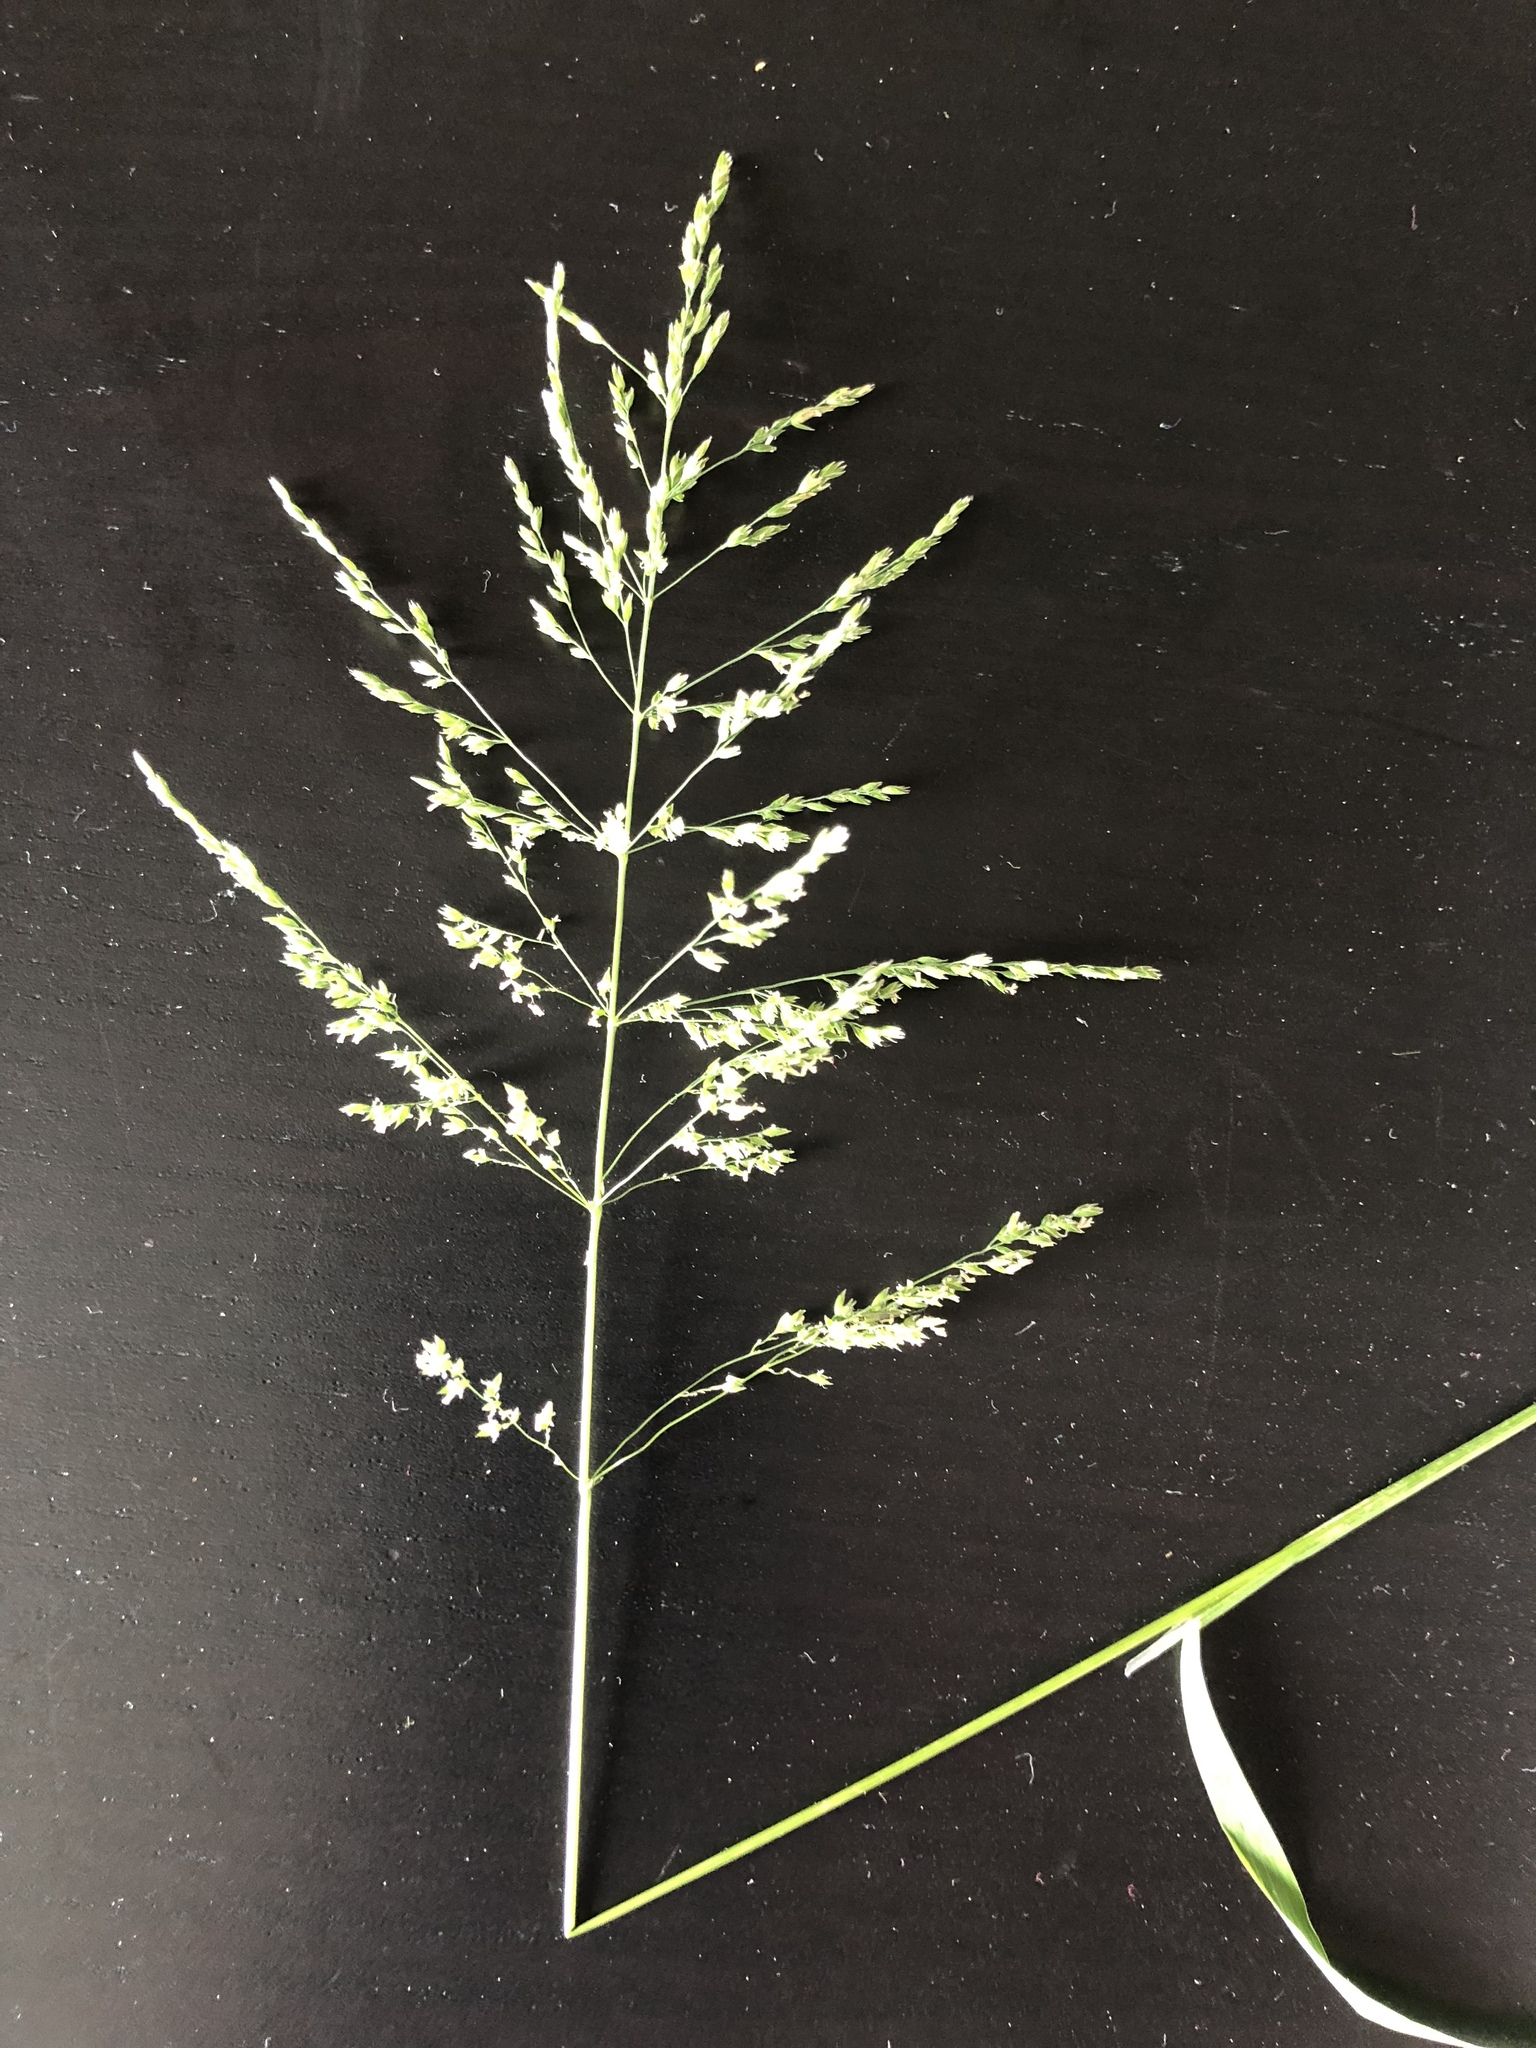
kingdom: Plantae
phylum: Tracheophyta
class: Liliopsida
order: Poales
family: Poaceae
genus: Poa
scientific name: Poa trivialis
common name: Rough bluegrass
